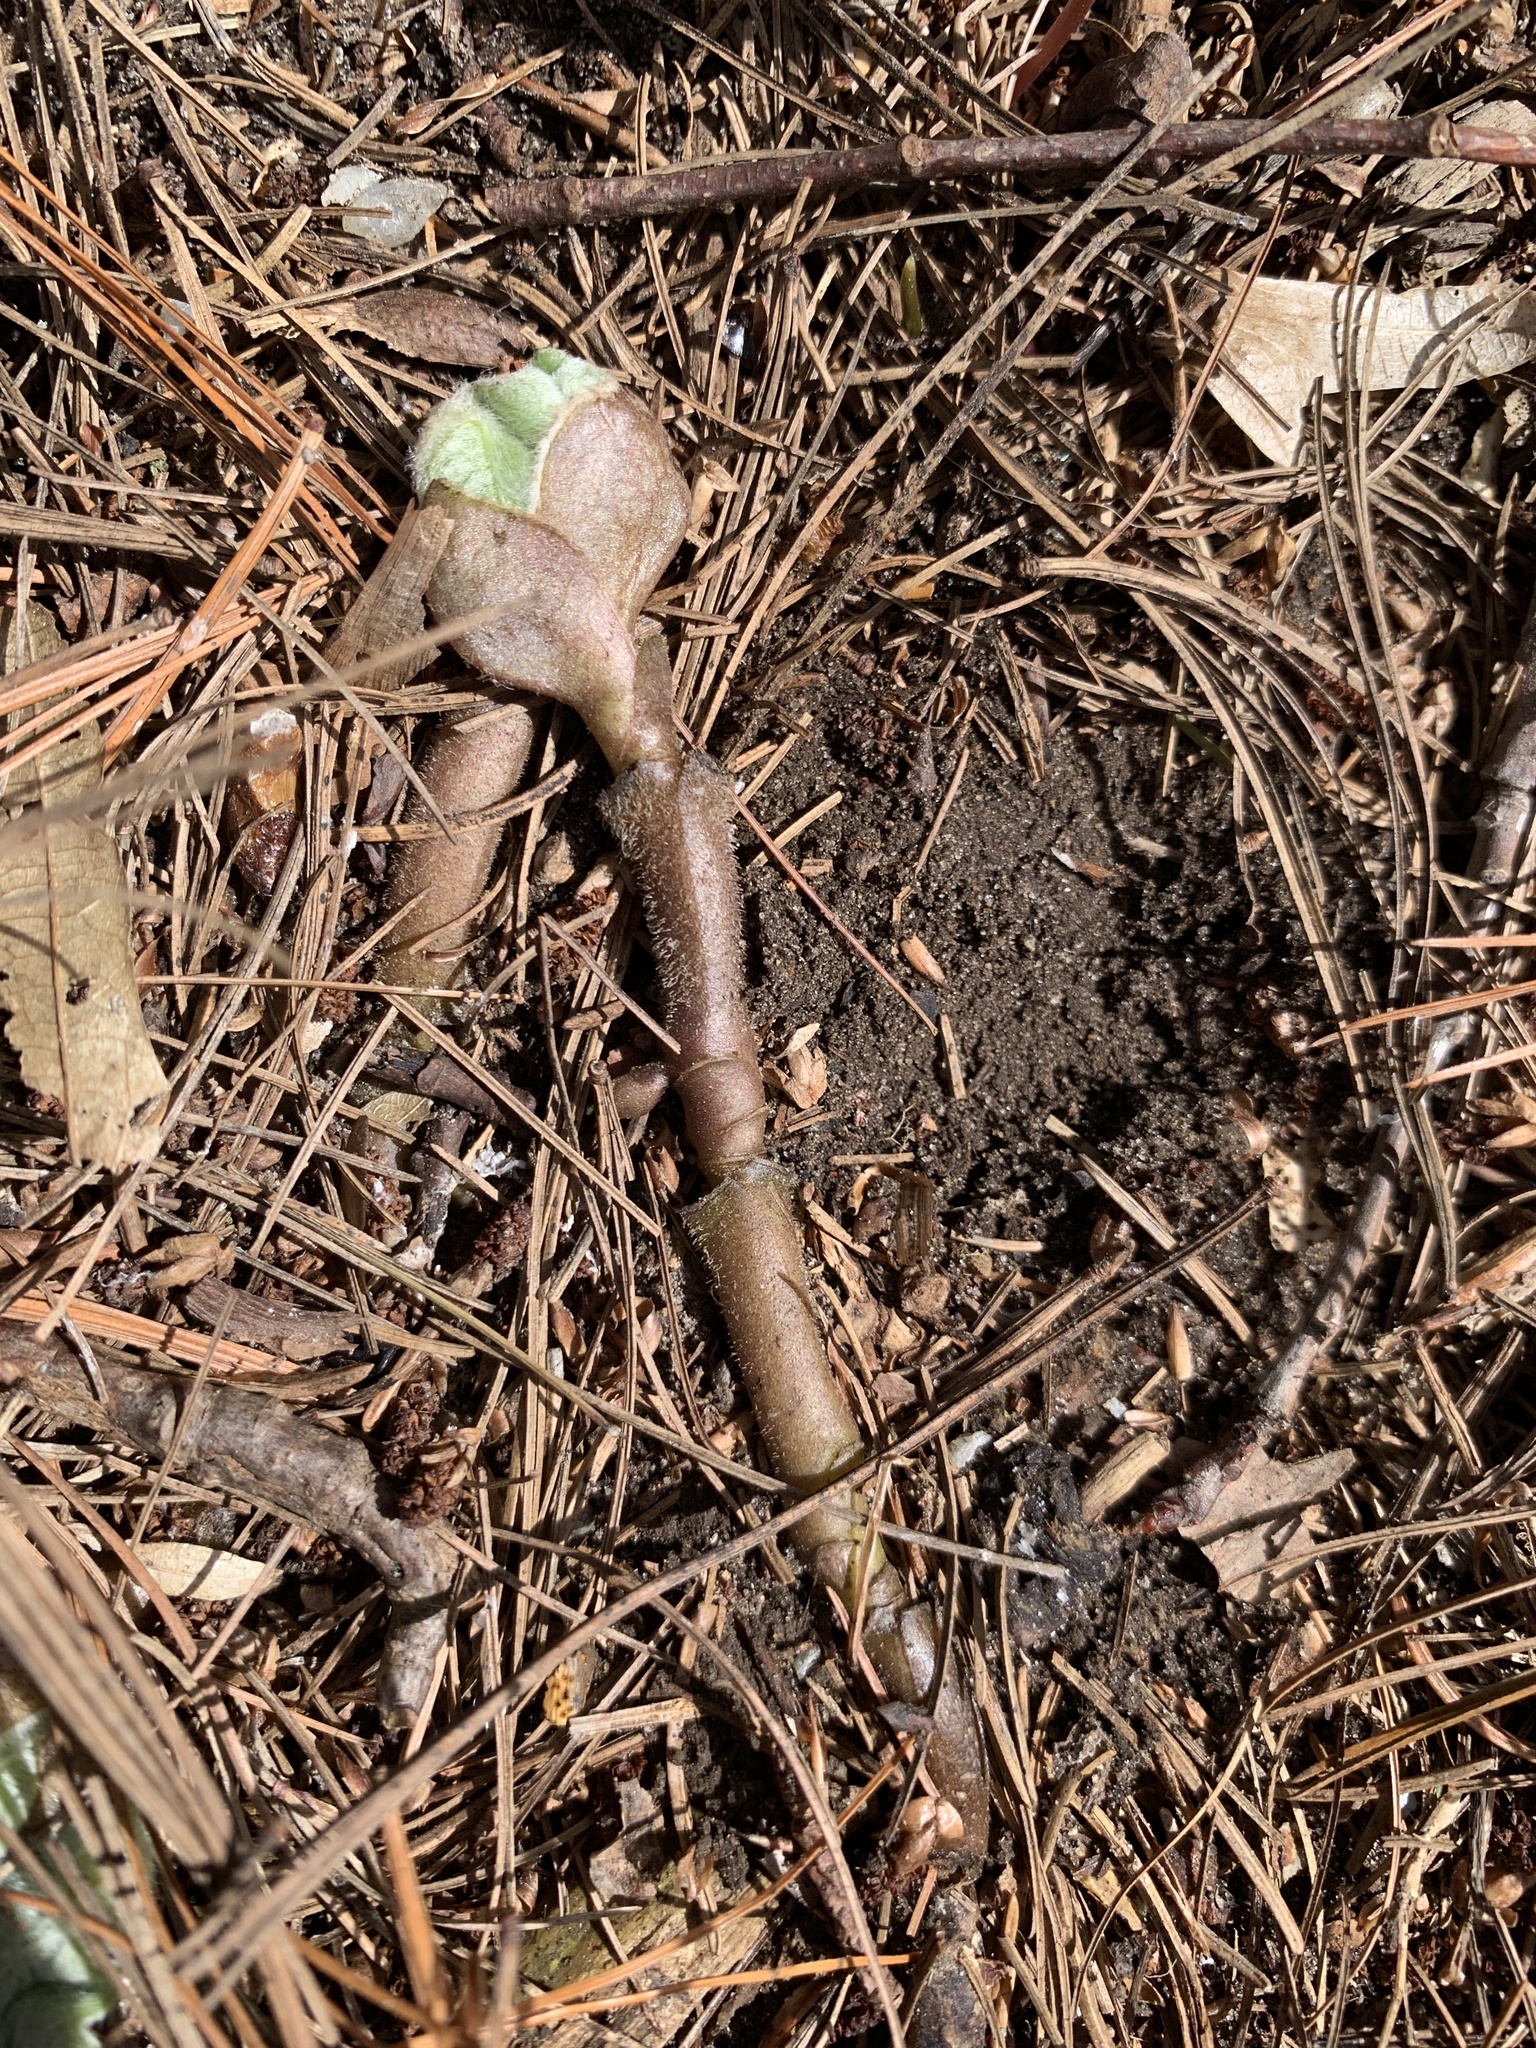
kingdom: Plantae
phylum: Tracheophyta
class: Magnoliopsida
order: Piperales
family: Aristolochiaceae
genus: Asarum
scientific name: Asarum canadense
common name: Wild ginger
